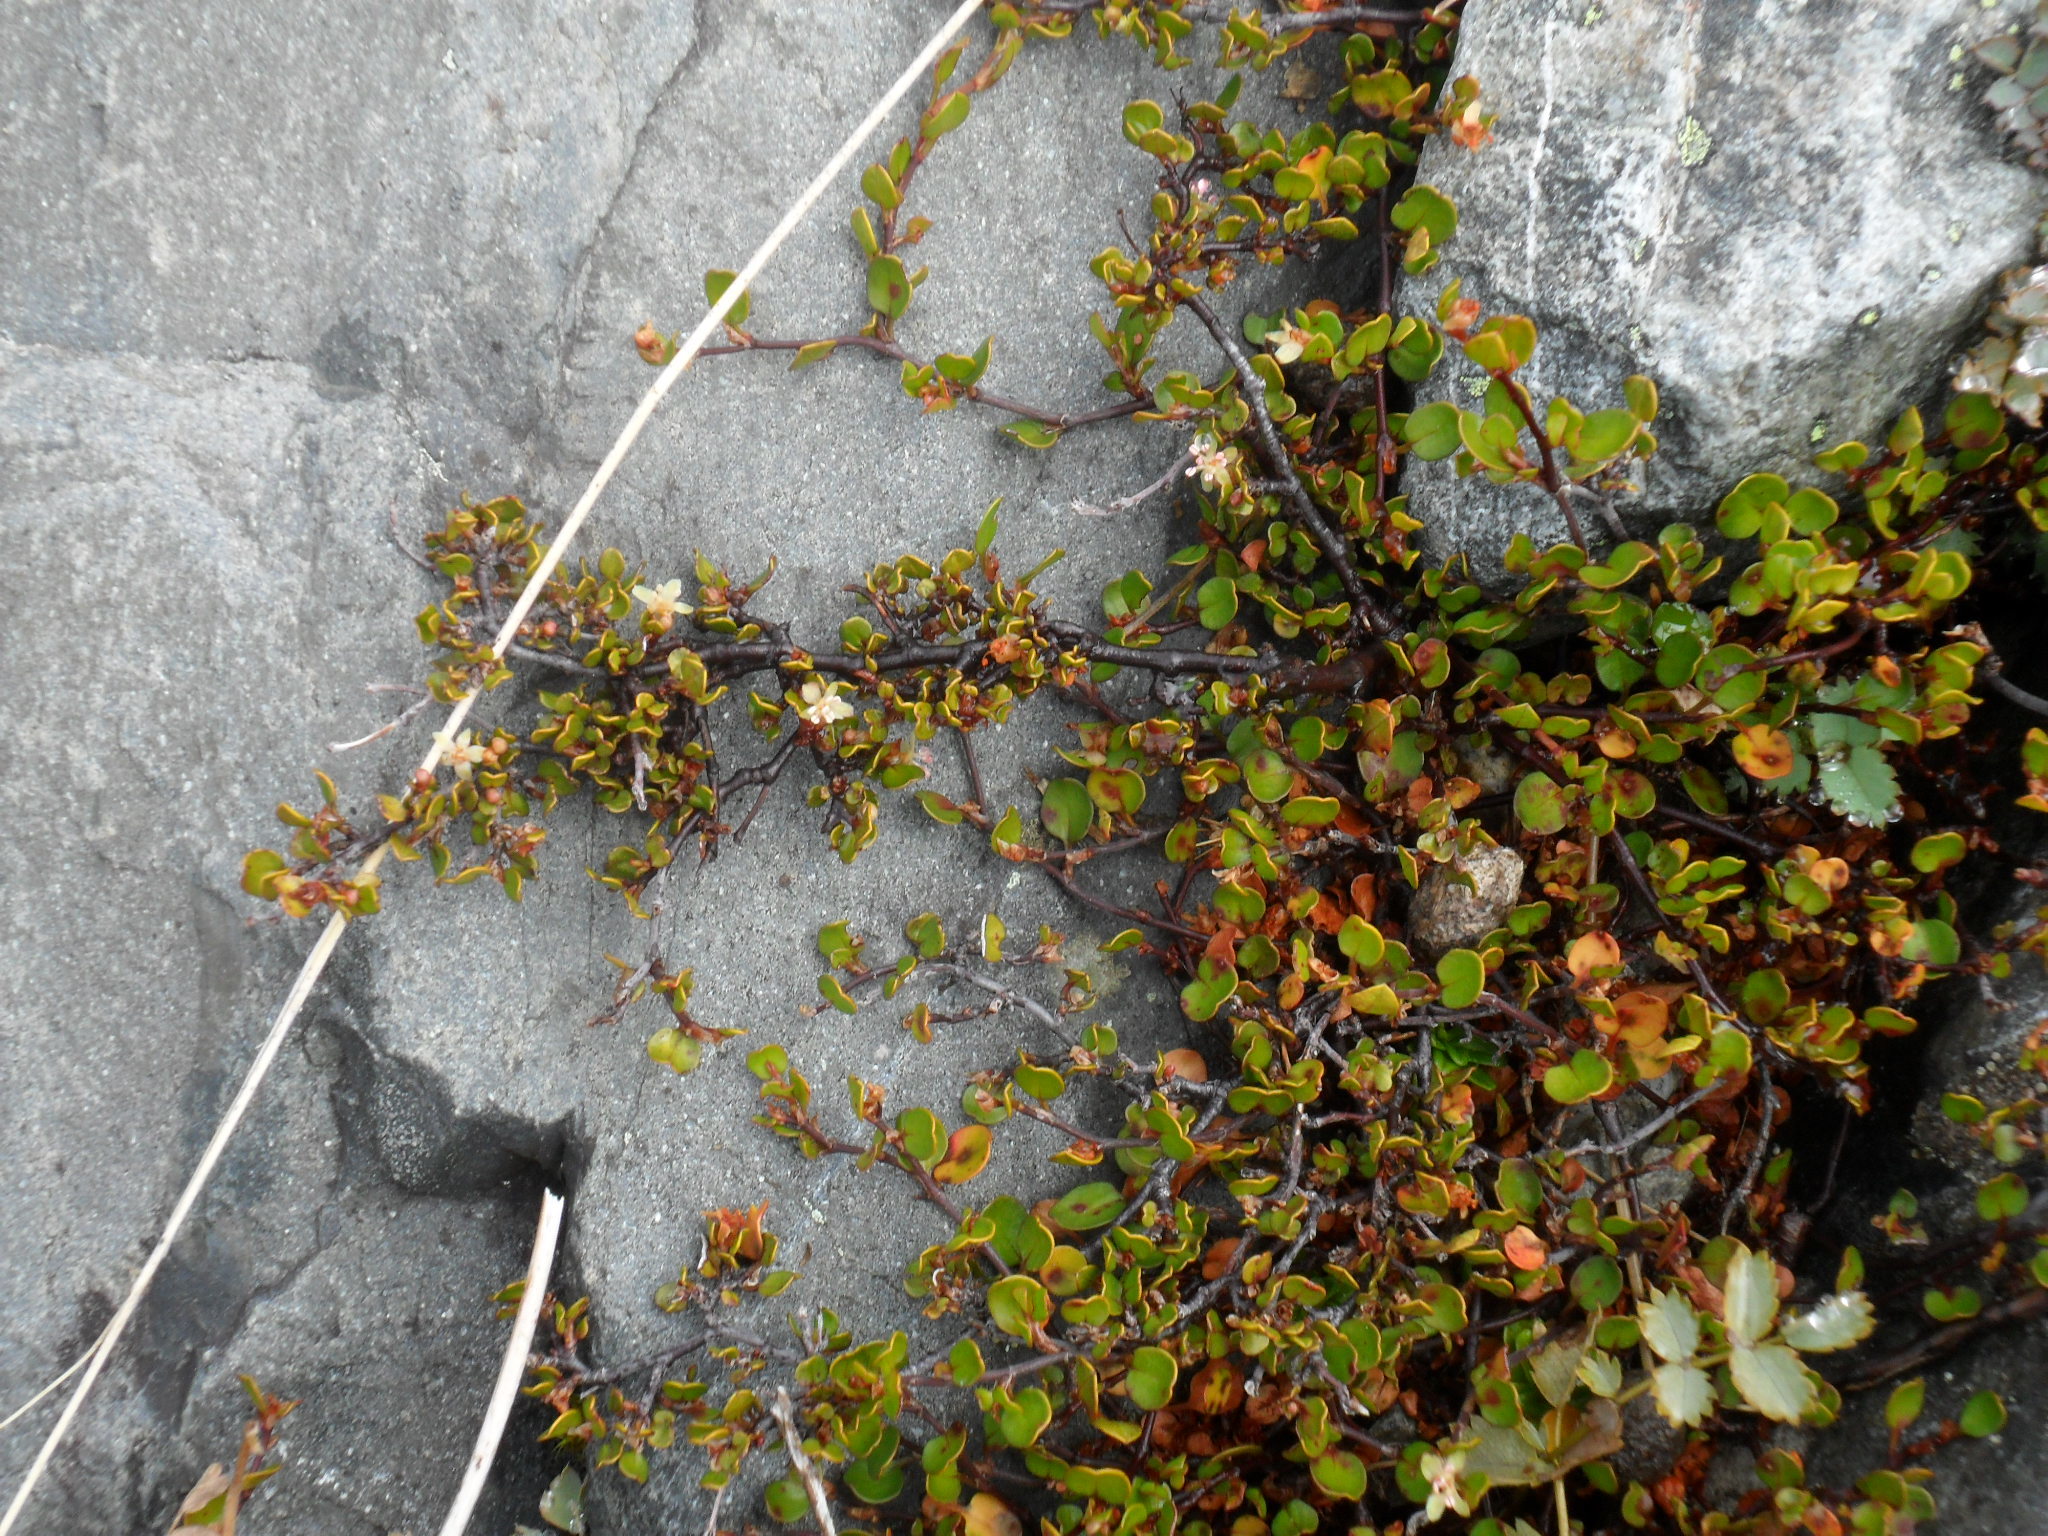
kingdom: Plantae
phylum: Tracheophyta
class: Magnoliopsida
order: Caryophyllales
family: Polygonaceae
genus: Muehlenbeckia
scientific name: Muehlenbeckia axillaris
